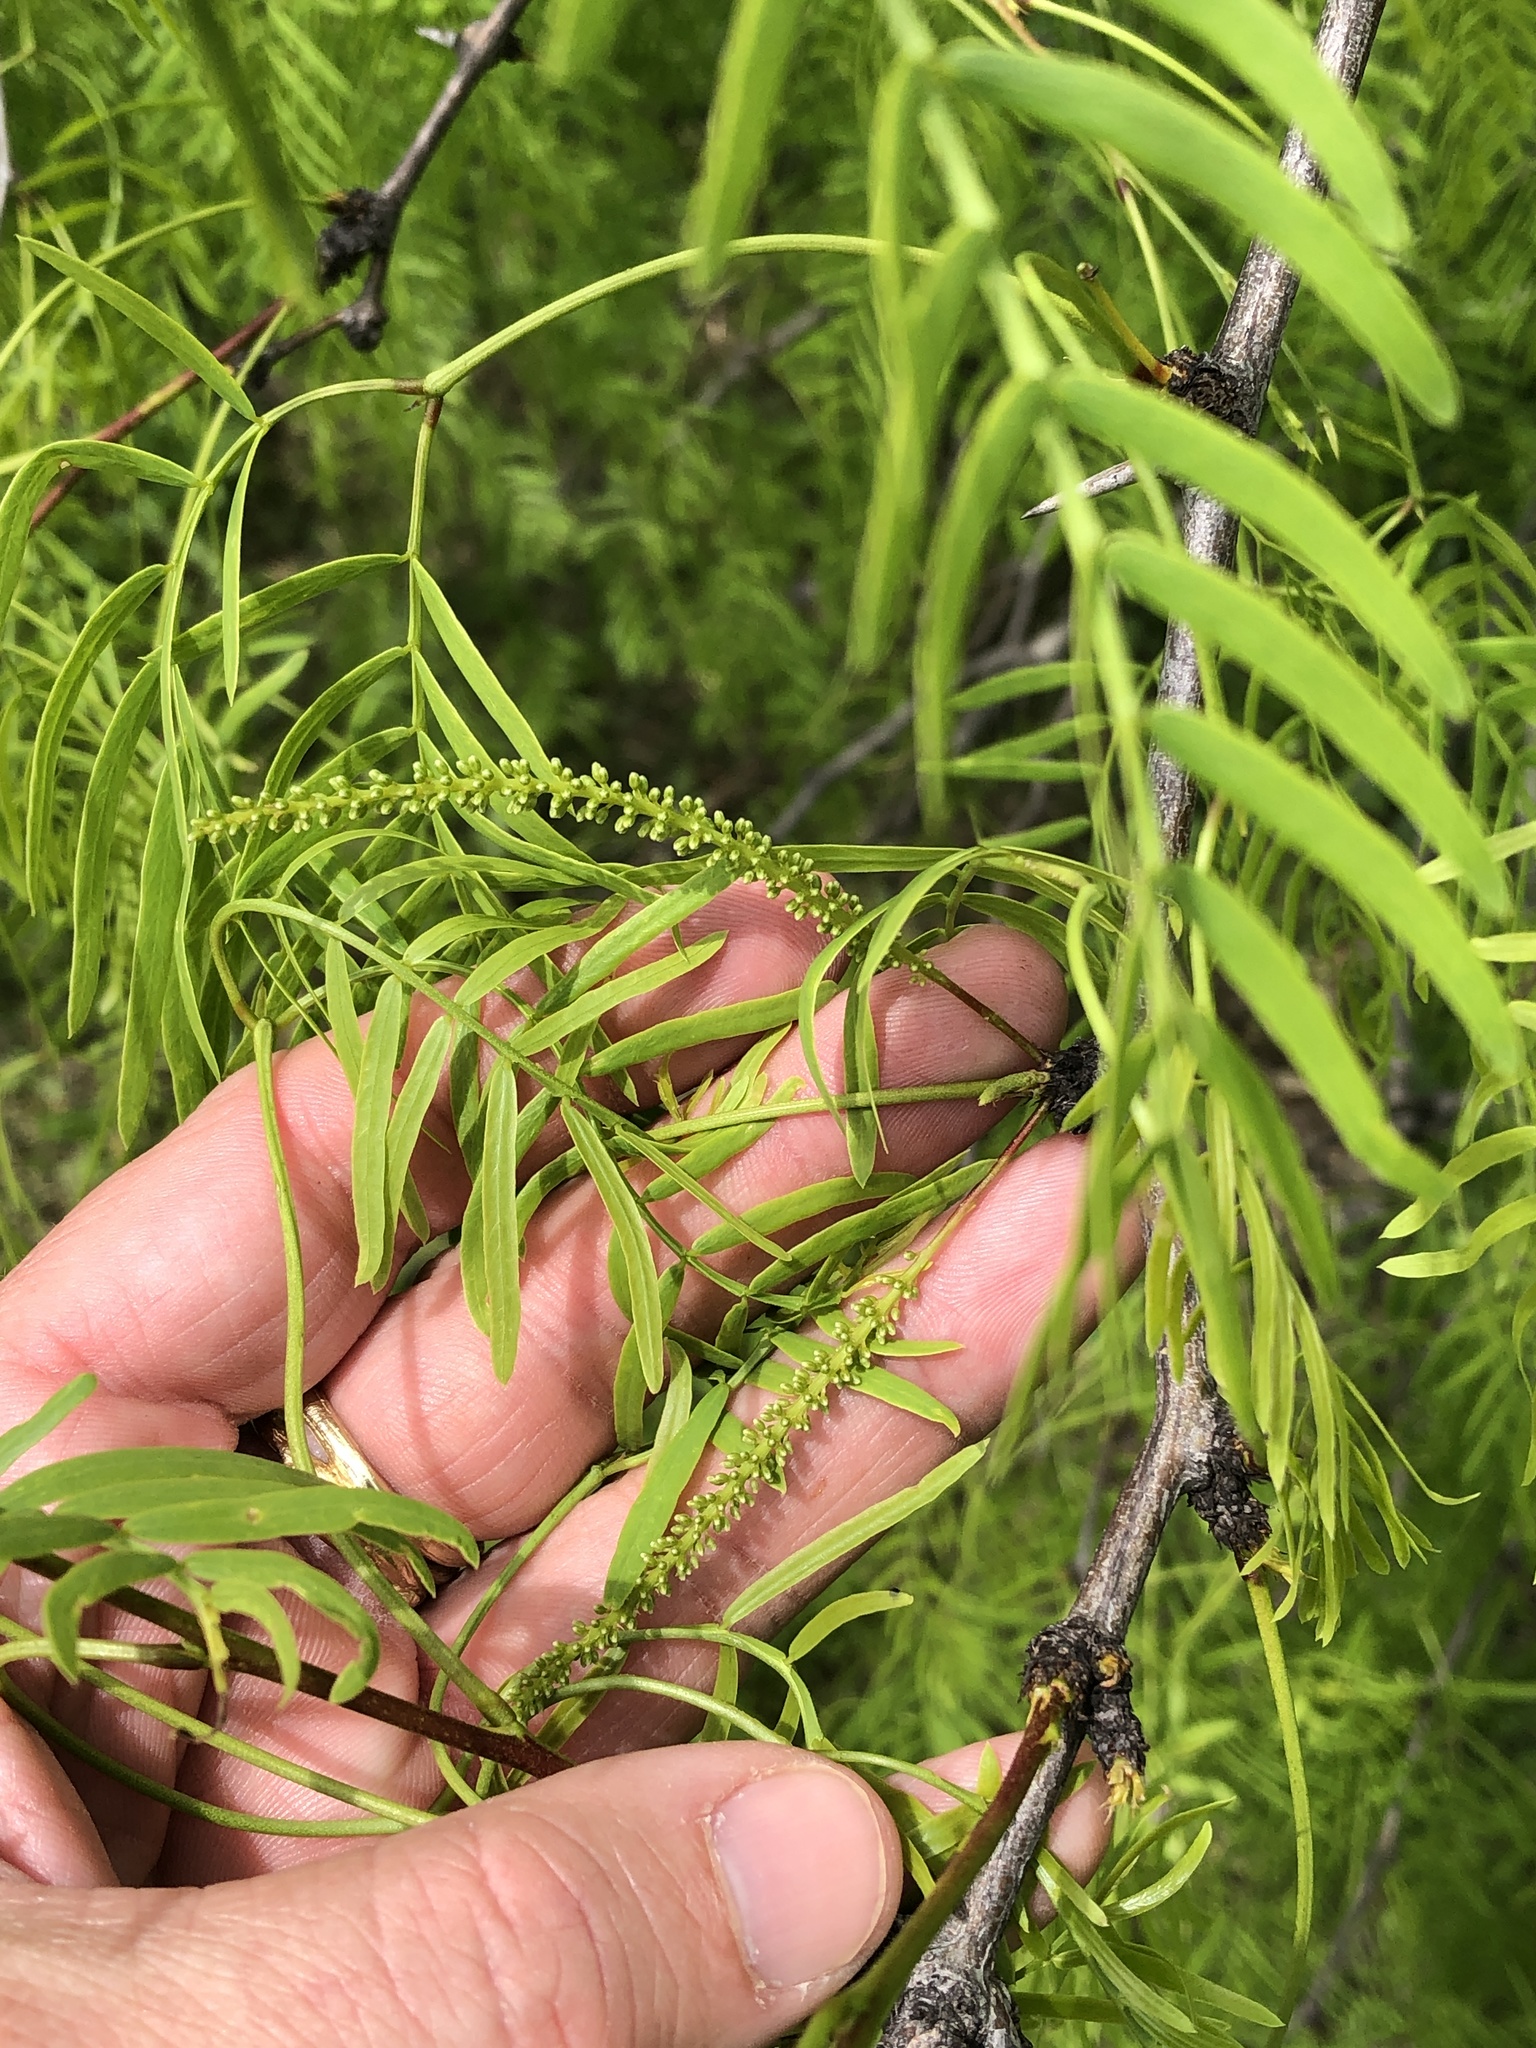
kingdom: Plantae
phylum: Tracheophyta
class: Magnoliopsida
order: Fabales
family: Fabaceae
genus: Prosopis
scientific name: Prosopis glandulosa
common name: Honey mesquite
